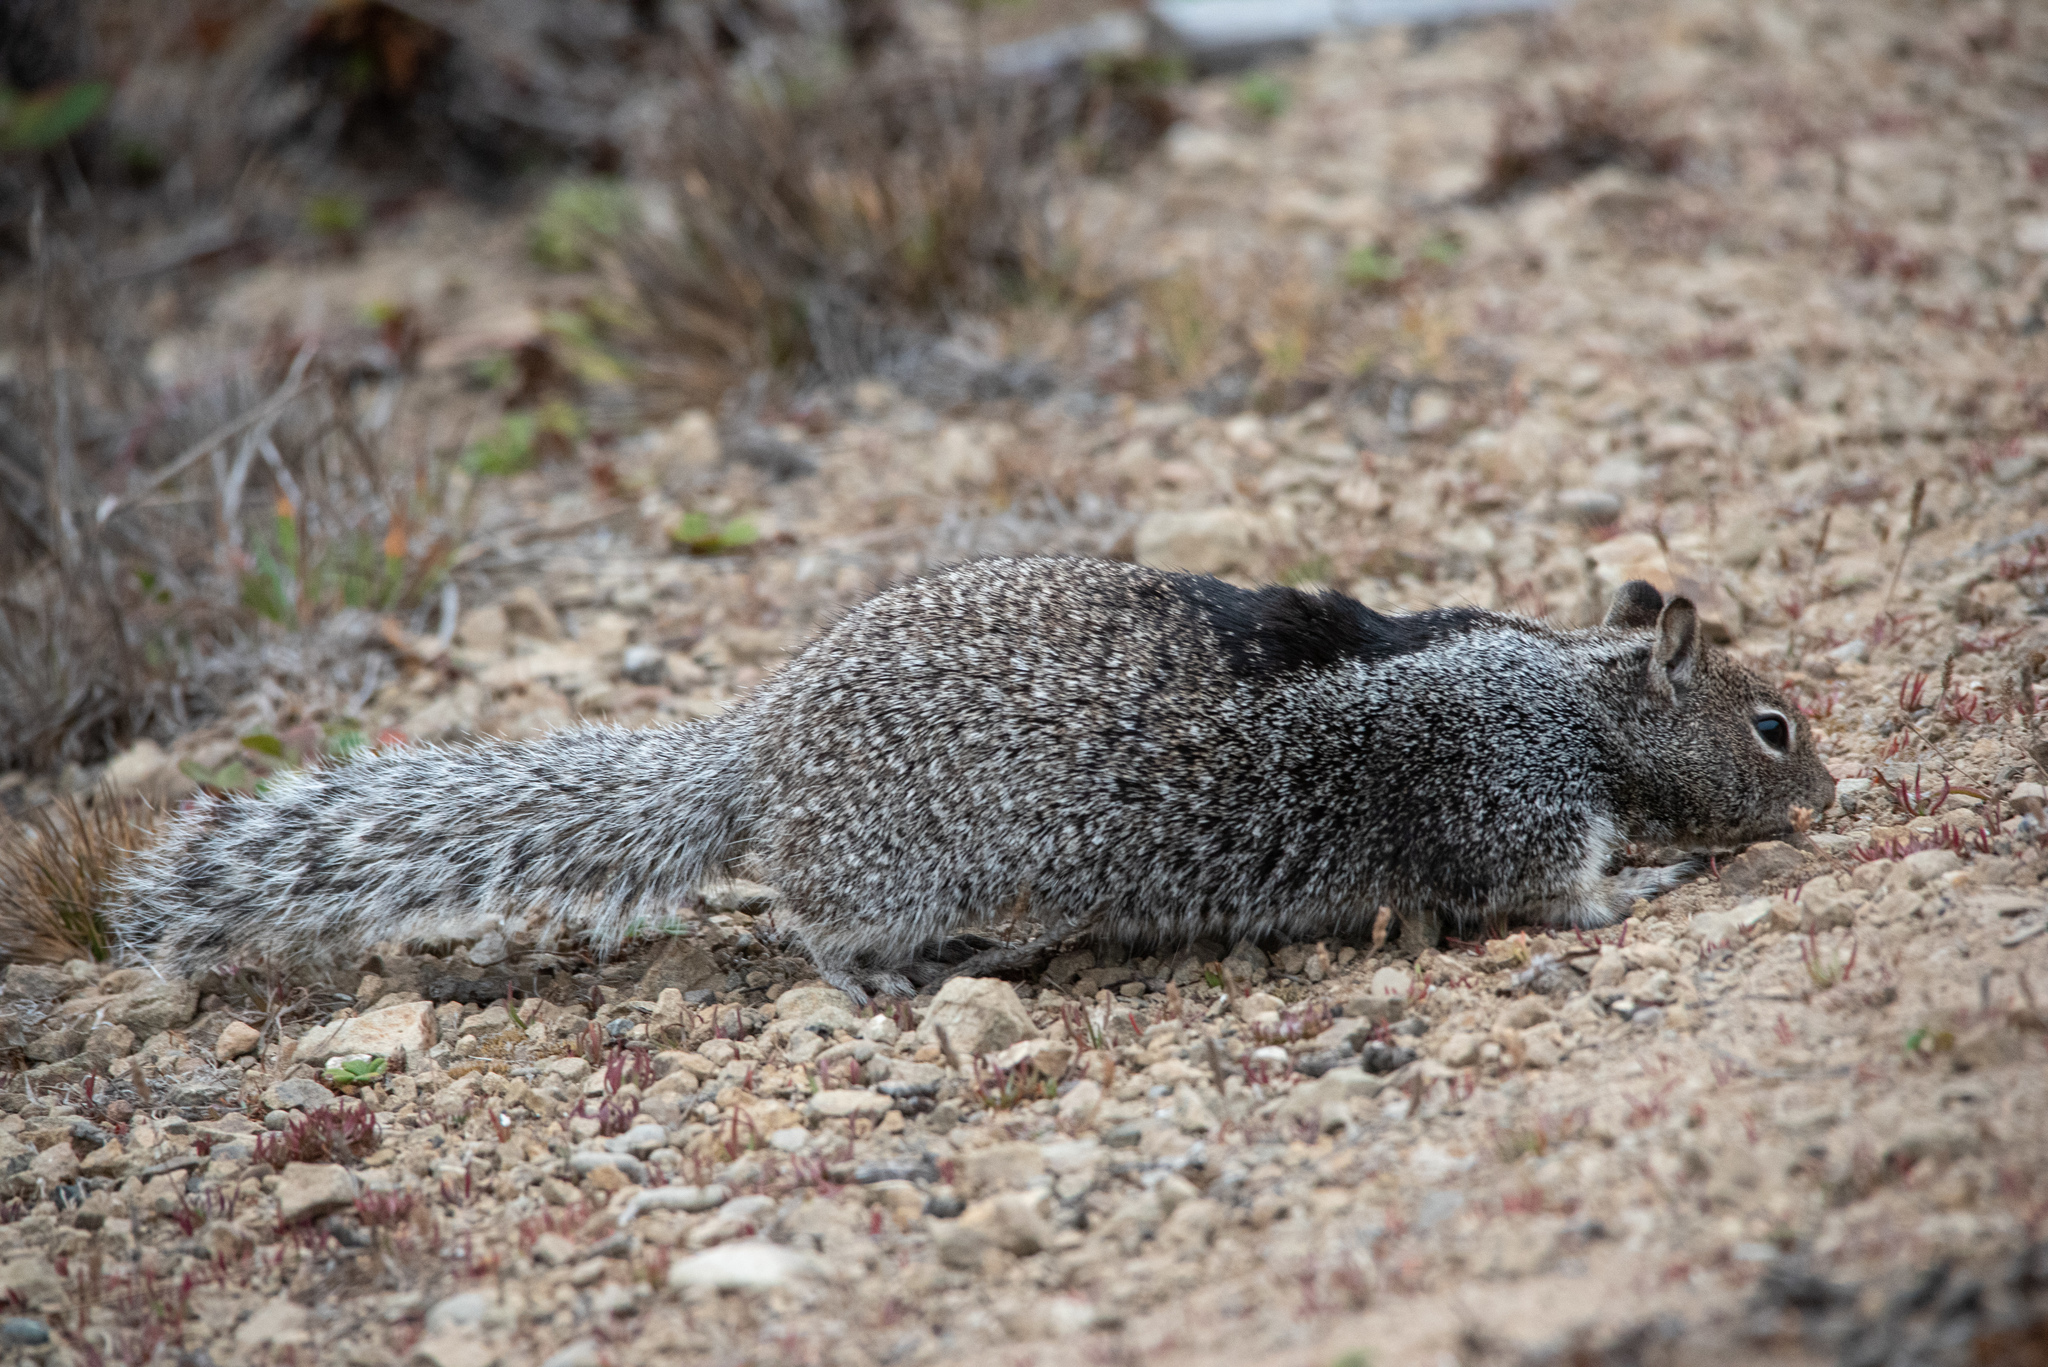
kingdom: Animalia
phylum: Chordata
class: Mammalia
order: Rodentia
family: Sciuridae
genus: Otospermophilus
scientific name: Otospermophilus beecheyi
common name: California ground squirrel
